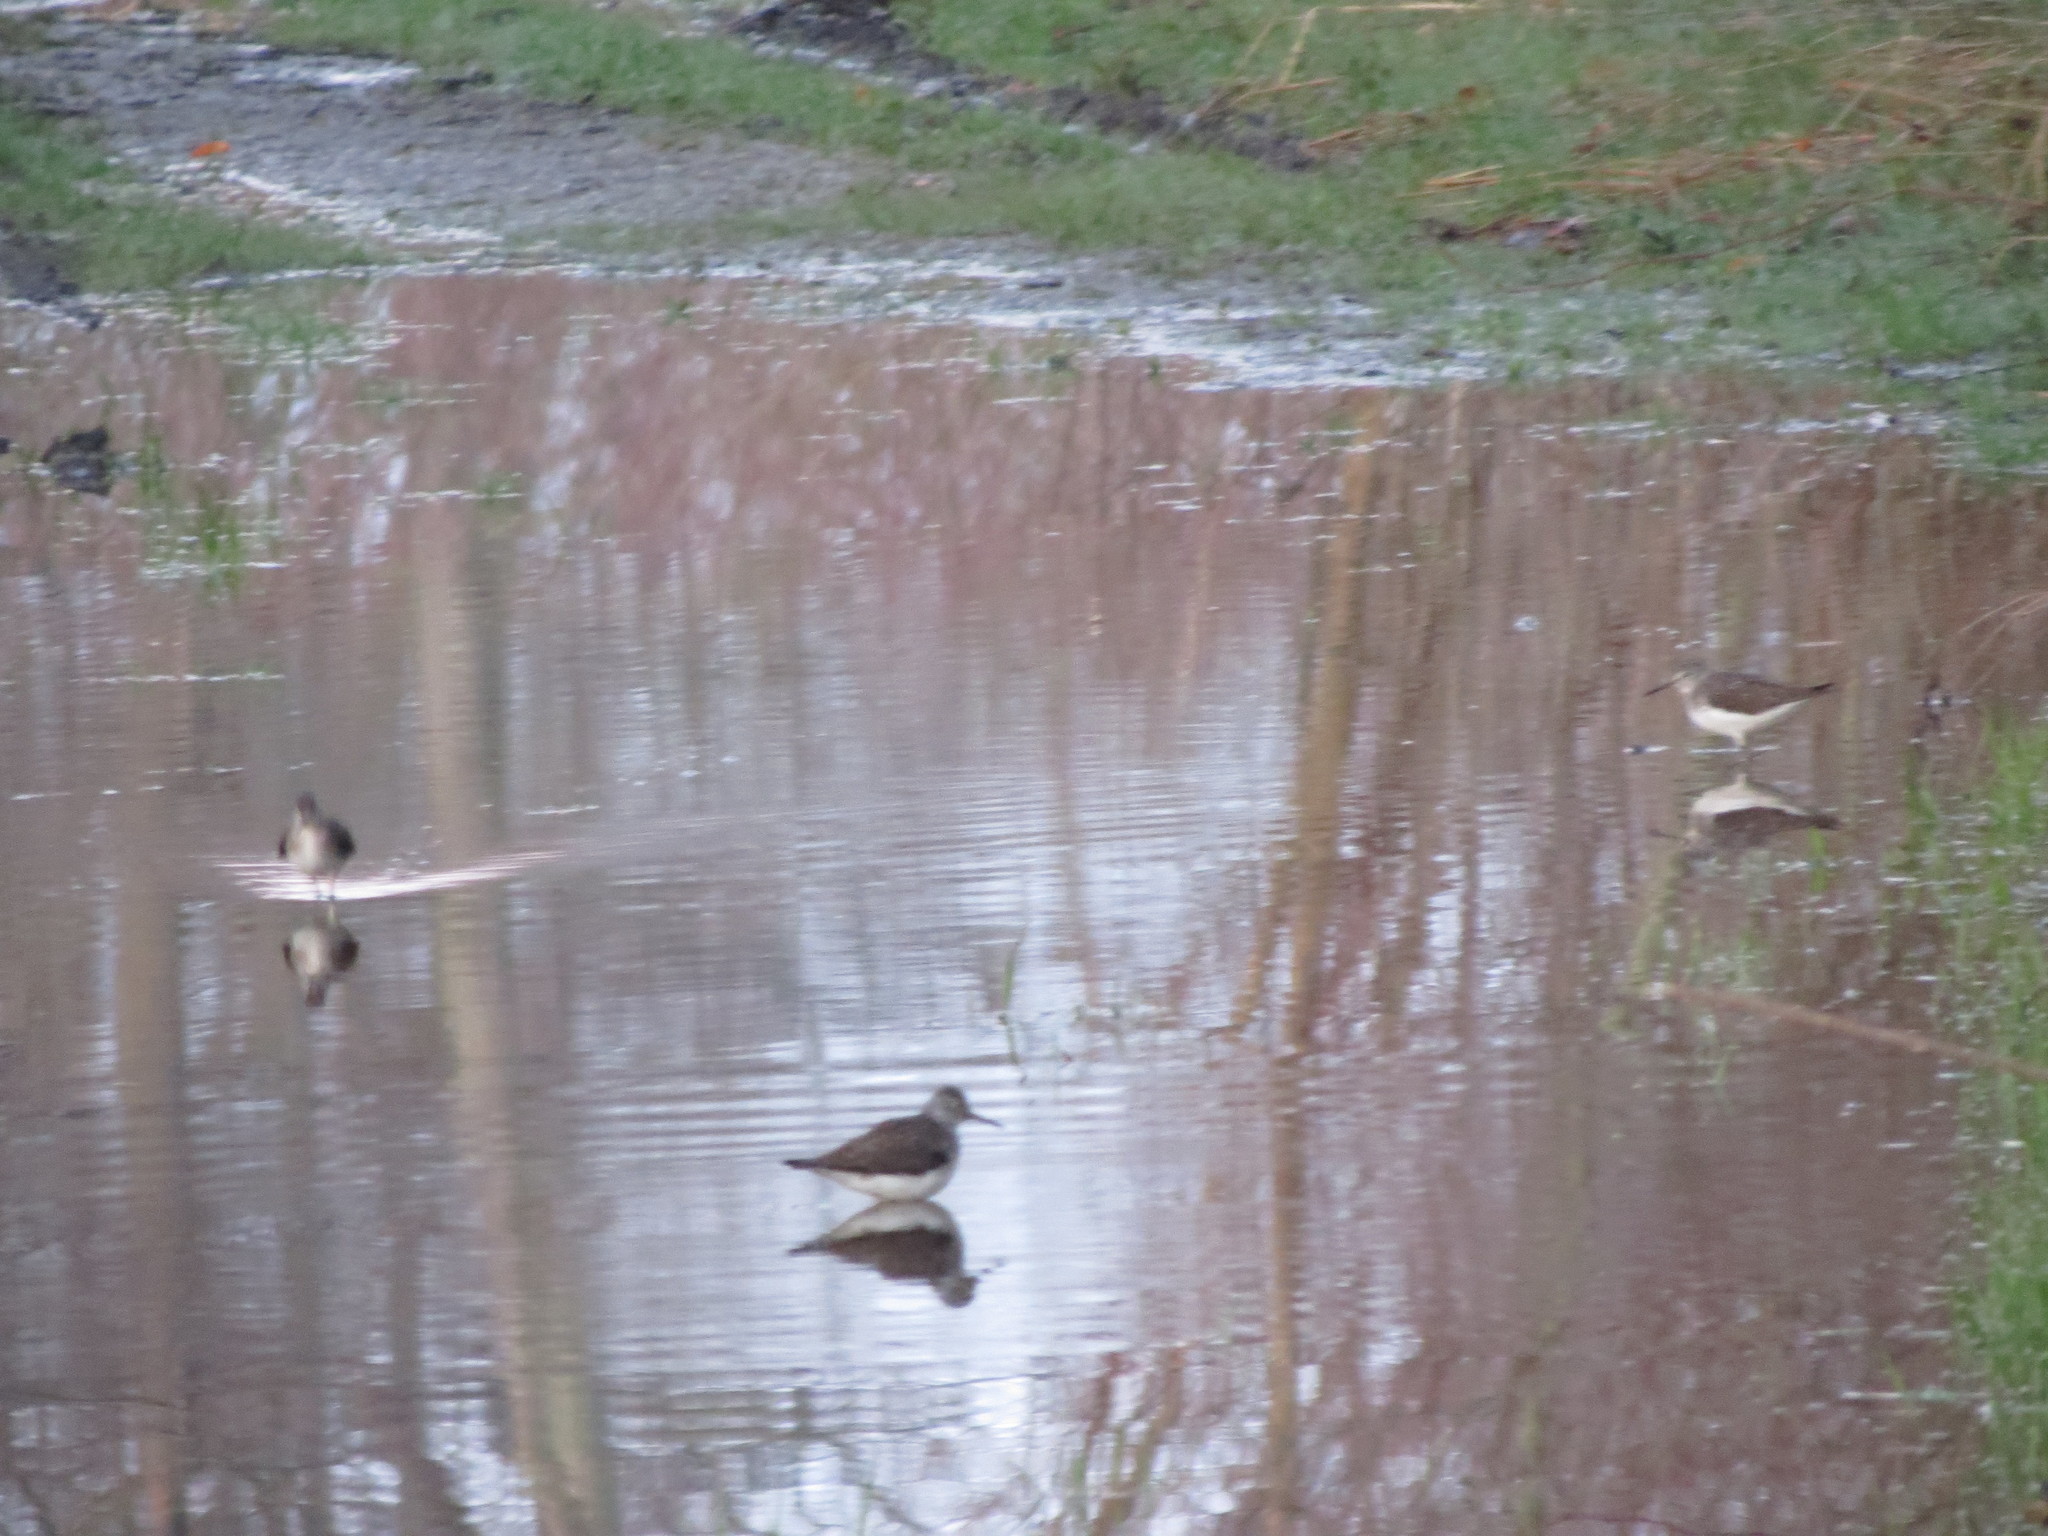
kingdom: Animalia
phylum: Chordata
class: Aves
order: Charadriiformes
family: Scolopacidae
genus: Tringa
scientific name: Tringa solitaria
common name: Solitary sandpiper
